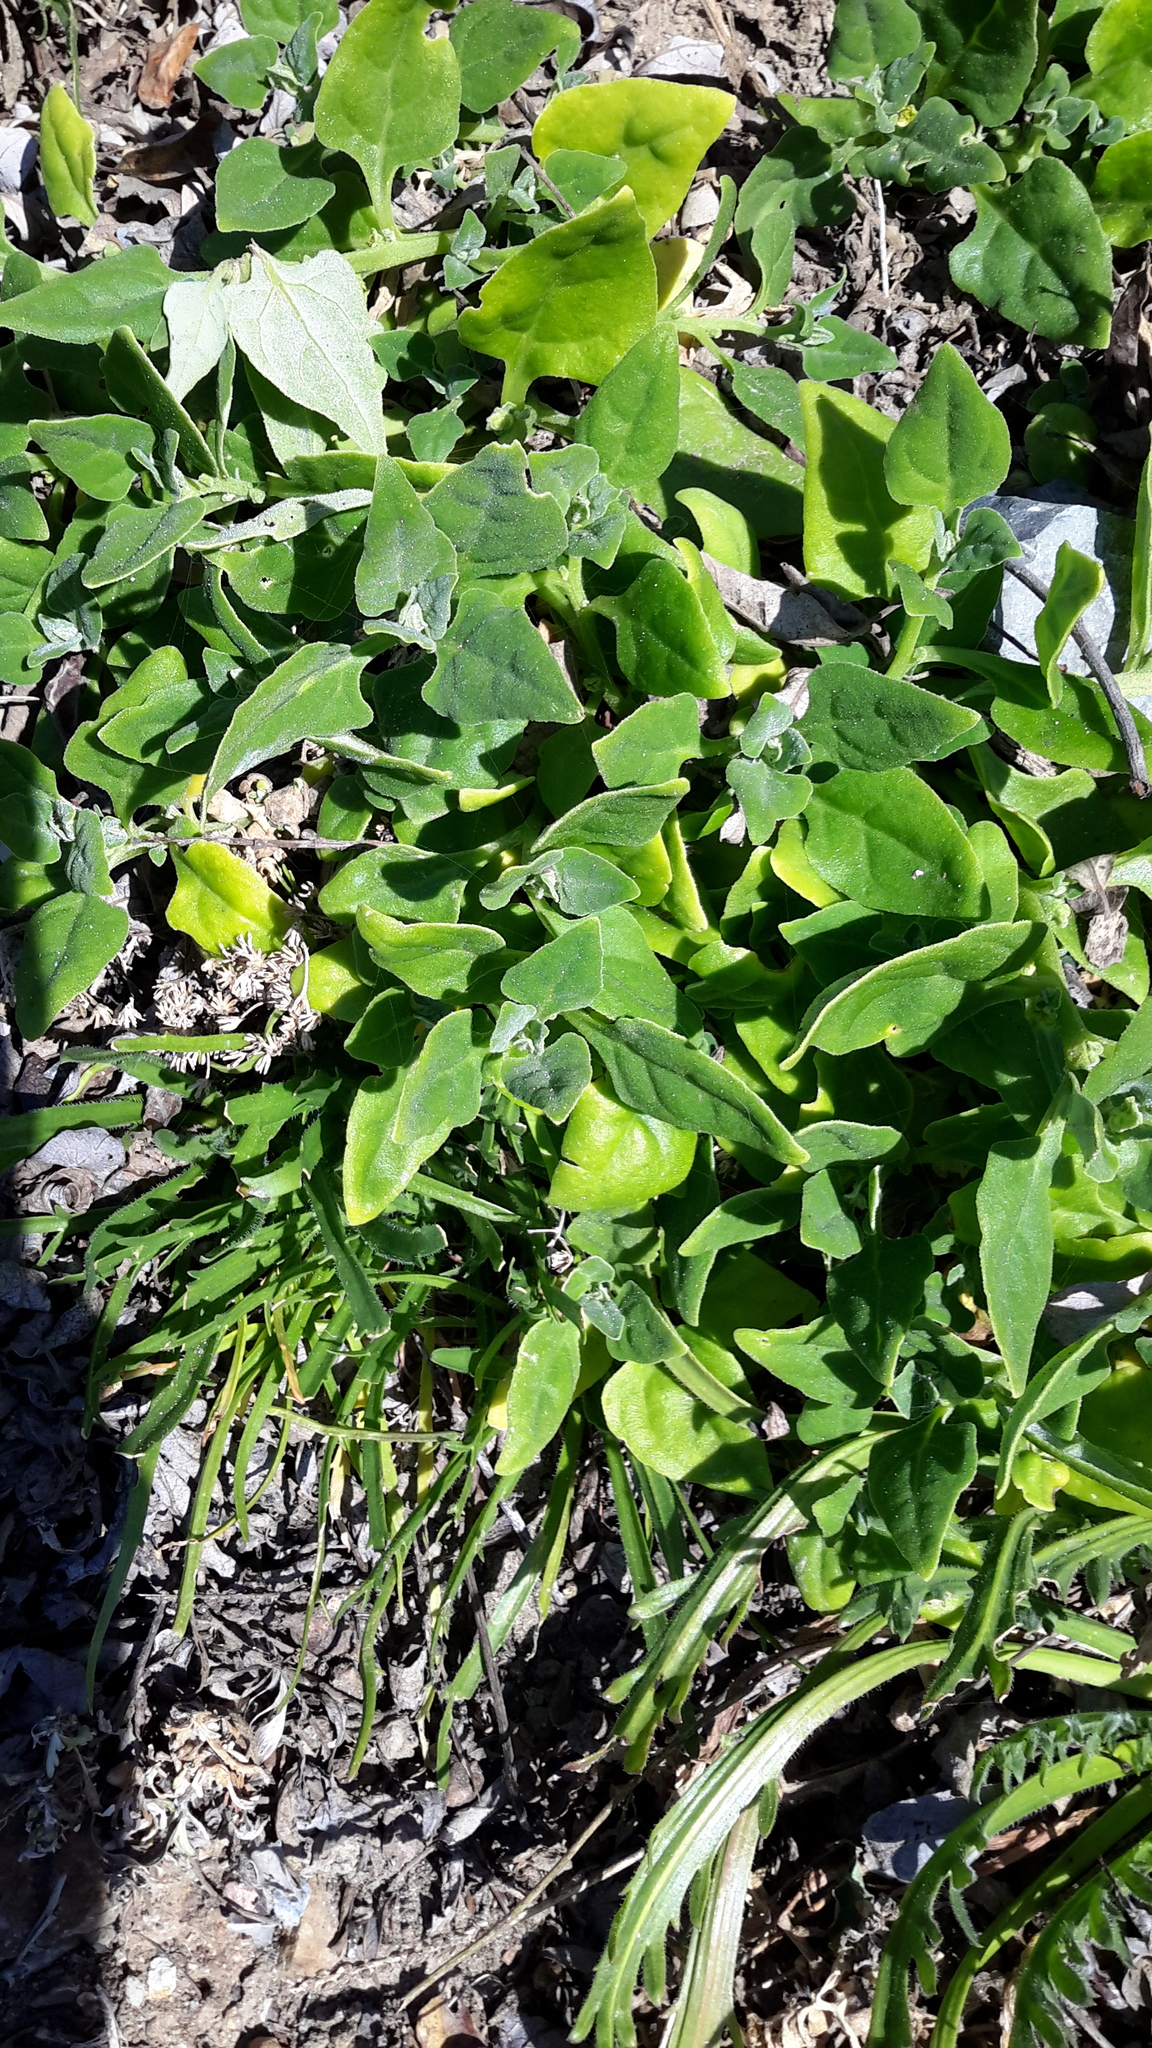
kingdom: Plantae
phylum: Tracheophyta
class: Magnoliopsida
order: Caryophyllales
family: Aizoaceae
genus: Tetragonia
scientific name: Tetragonia tetragonoides
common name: New zealand-spinach
